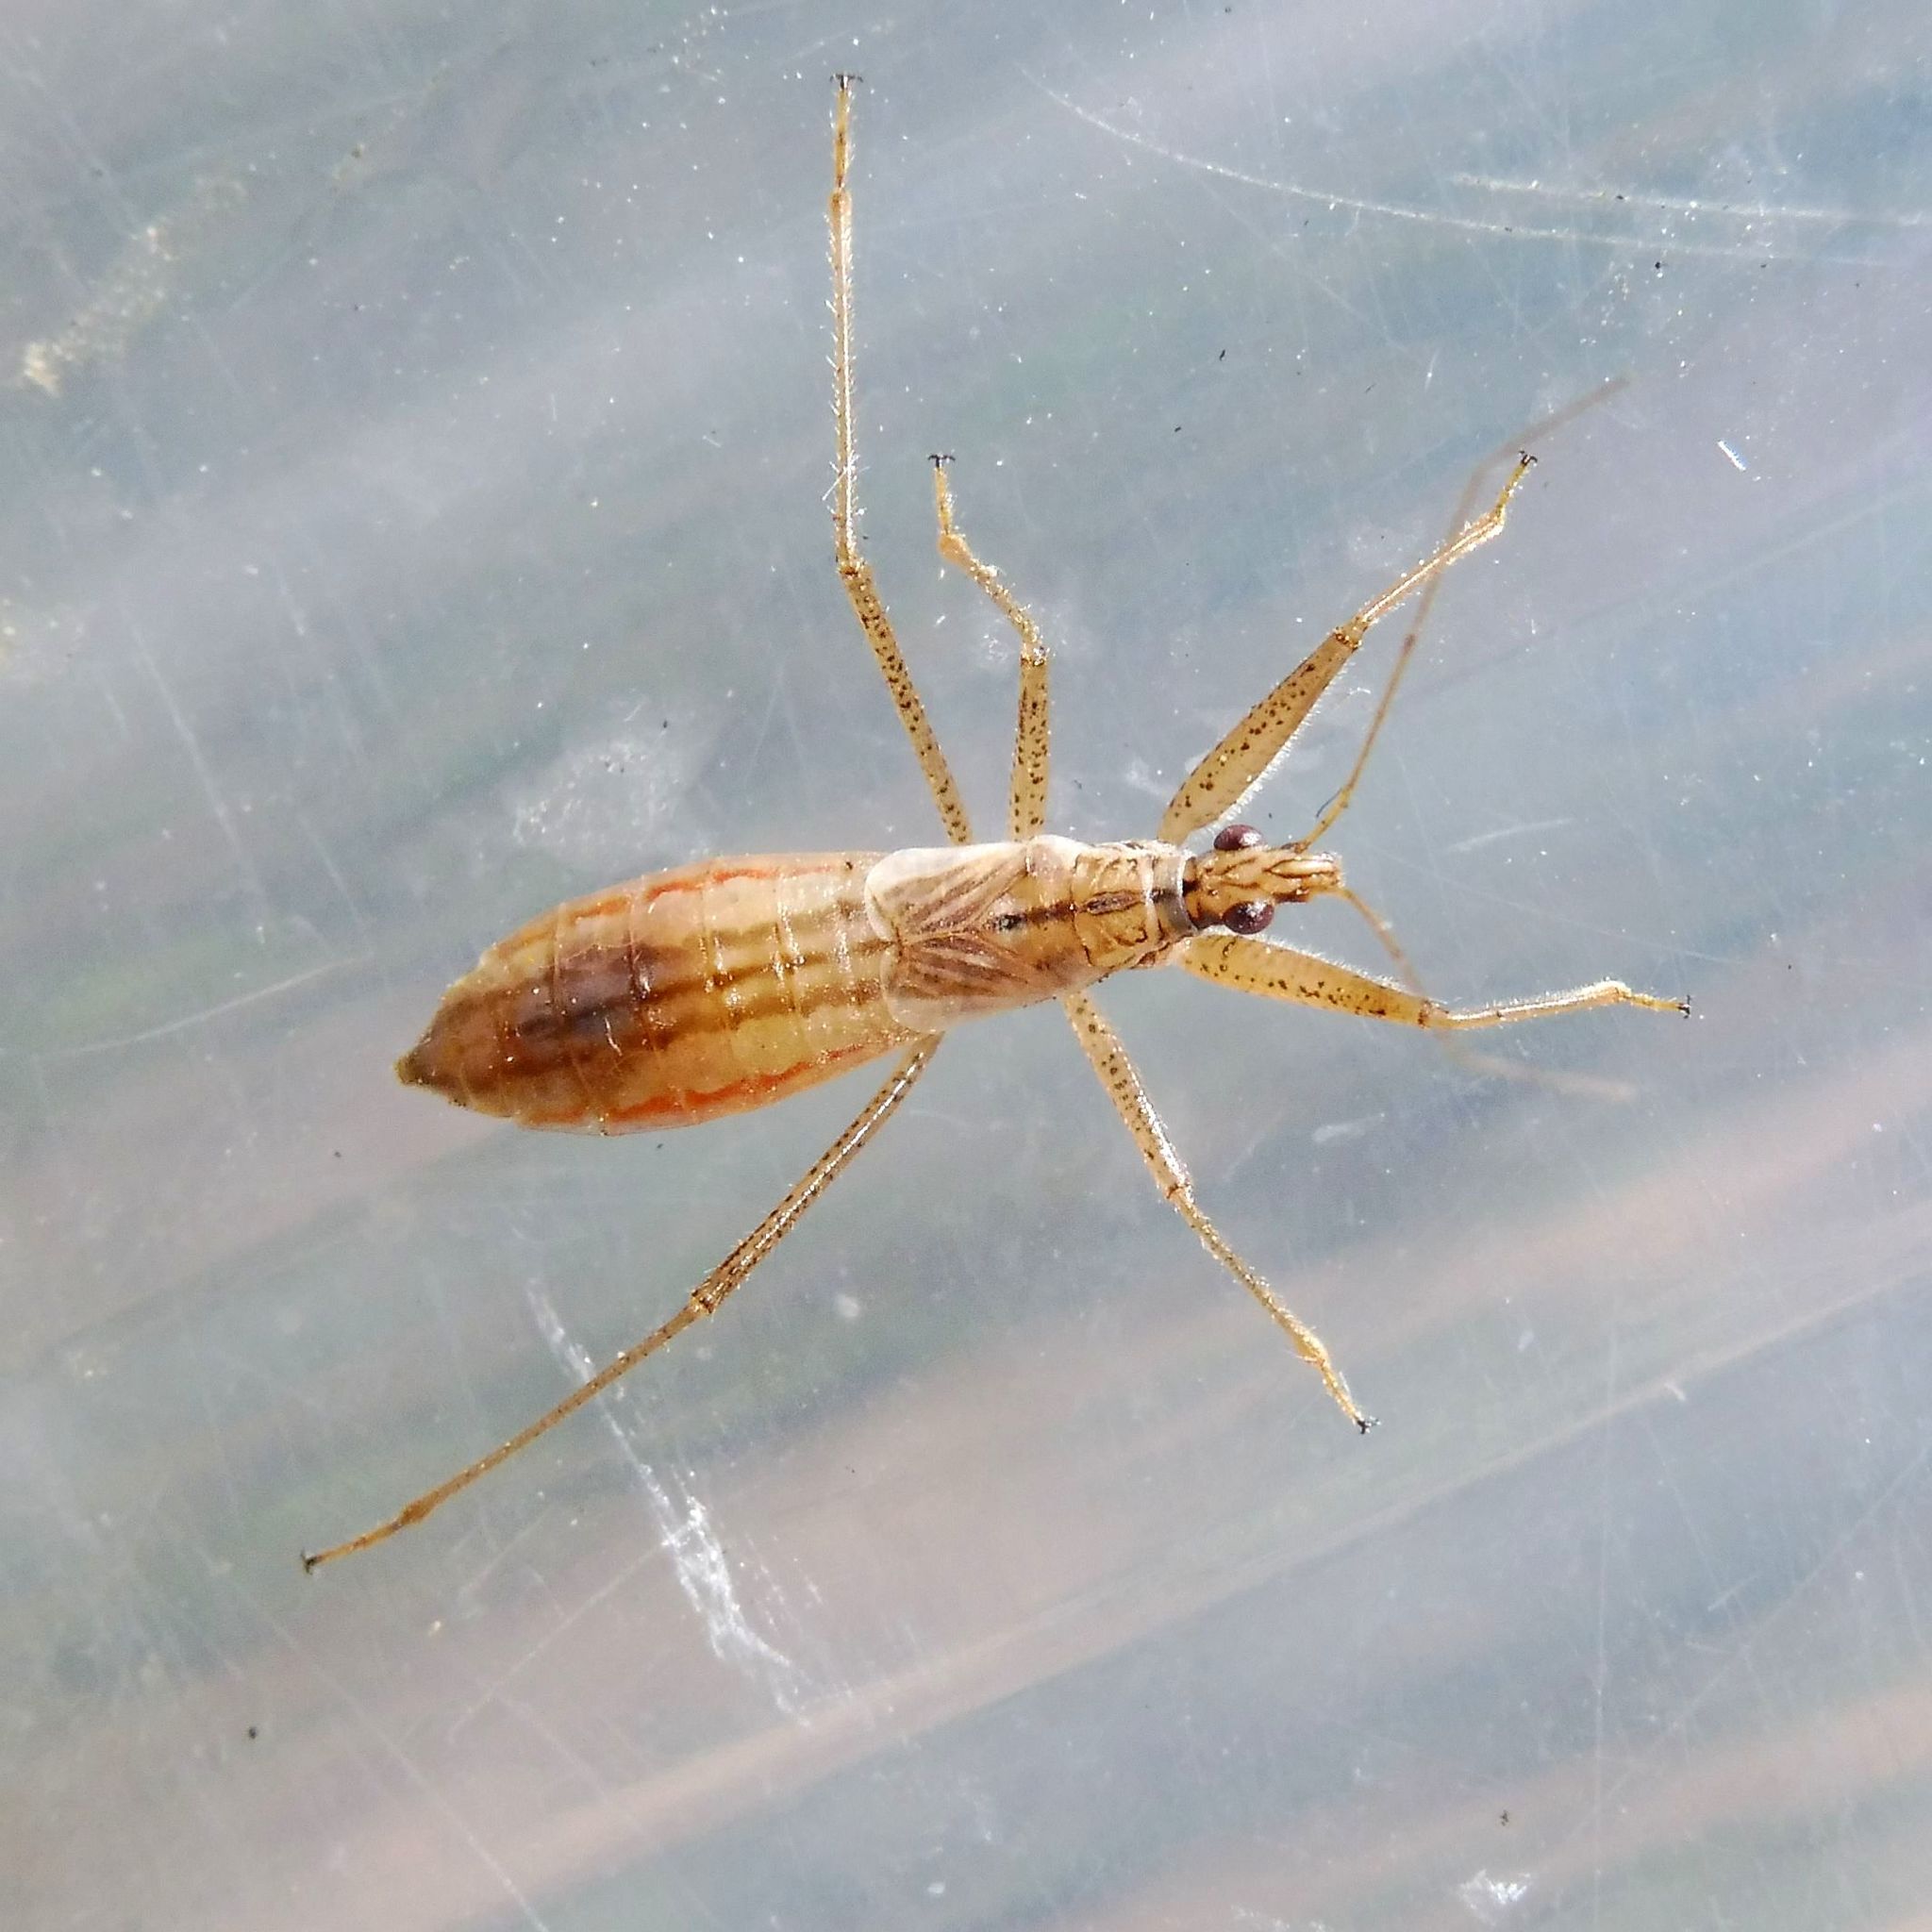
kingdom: Animalia
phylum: Arthropoda
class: Insecta
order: Hemiptera
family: Nabidae
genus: Nabis
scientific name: Nabis limbatus
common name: Marsh damselbug
